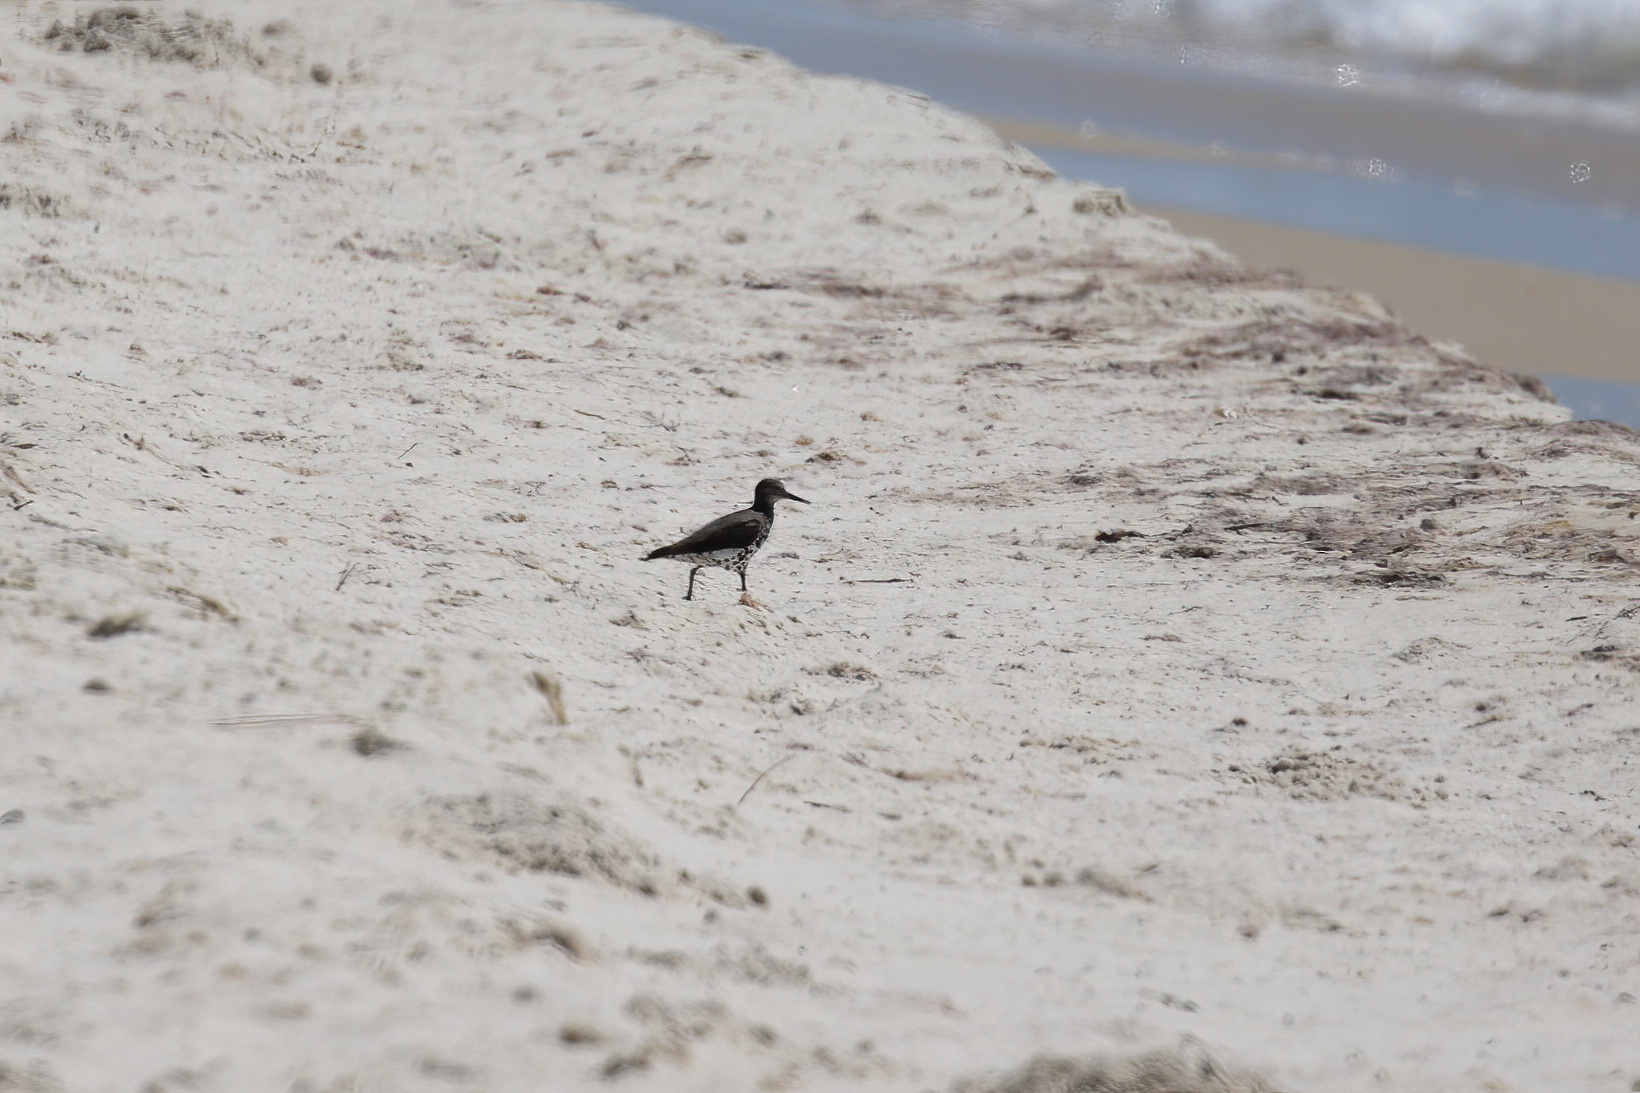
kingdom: Animalia
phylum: Chordata
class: Aves
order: Charadriiformes
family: Scolopacidae
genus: Actitis
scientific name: Actitis macularius
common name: Spotted sandpiper
